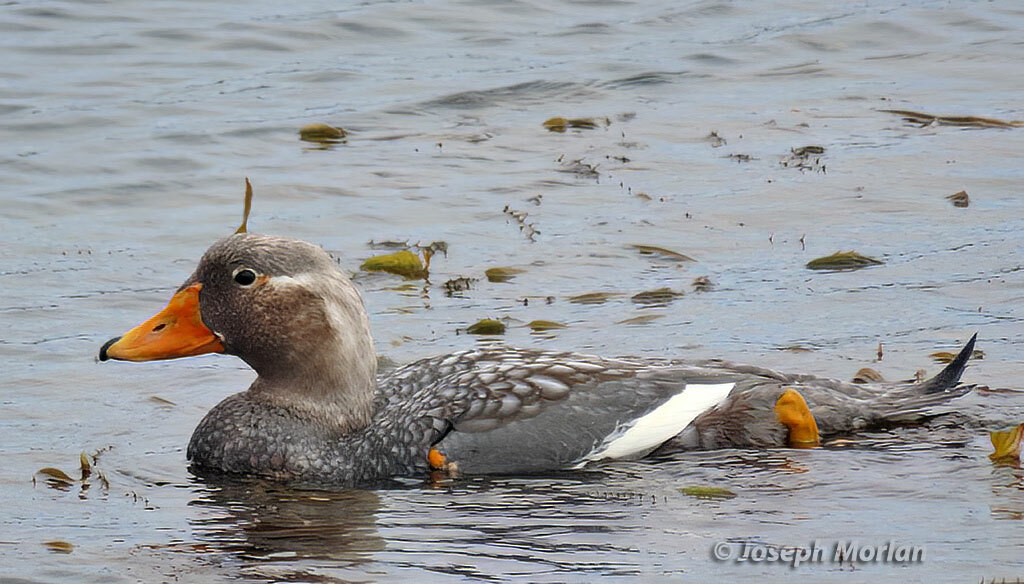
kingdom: Animalia
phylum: Chordata
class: Aves
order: Anseriformes
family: Anatidae
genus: Tachyeres
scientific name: Tachyeres brachypterus
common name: Falkland steamer duck
